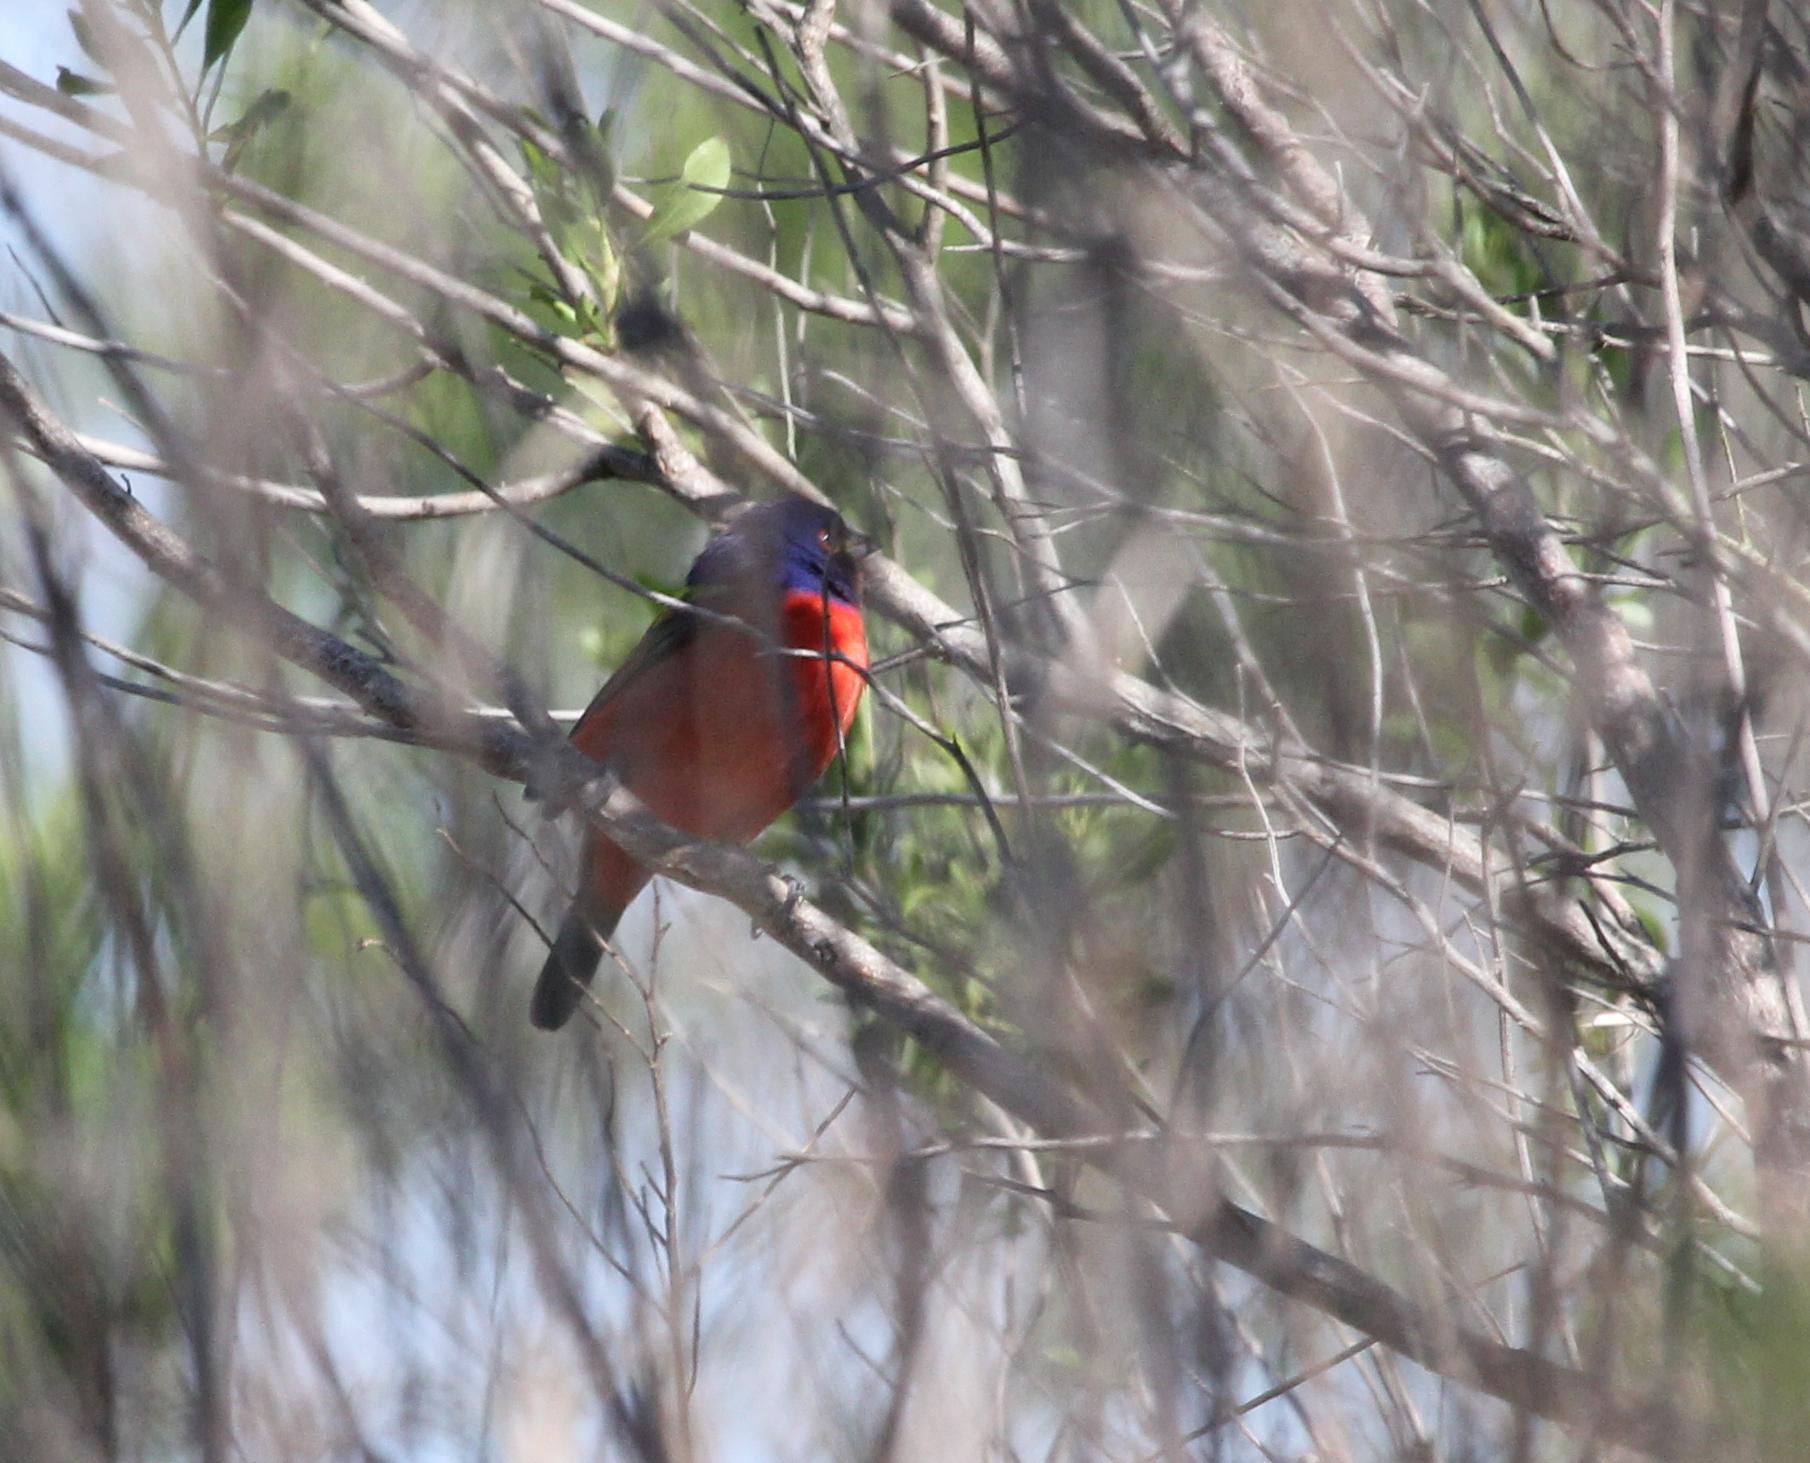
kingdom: Animalia
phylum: Chordata
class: Aves
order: Passeriformes
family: Cardinalidae
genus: Passerina
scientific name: Passerina ciris
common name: Painted bunting
